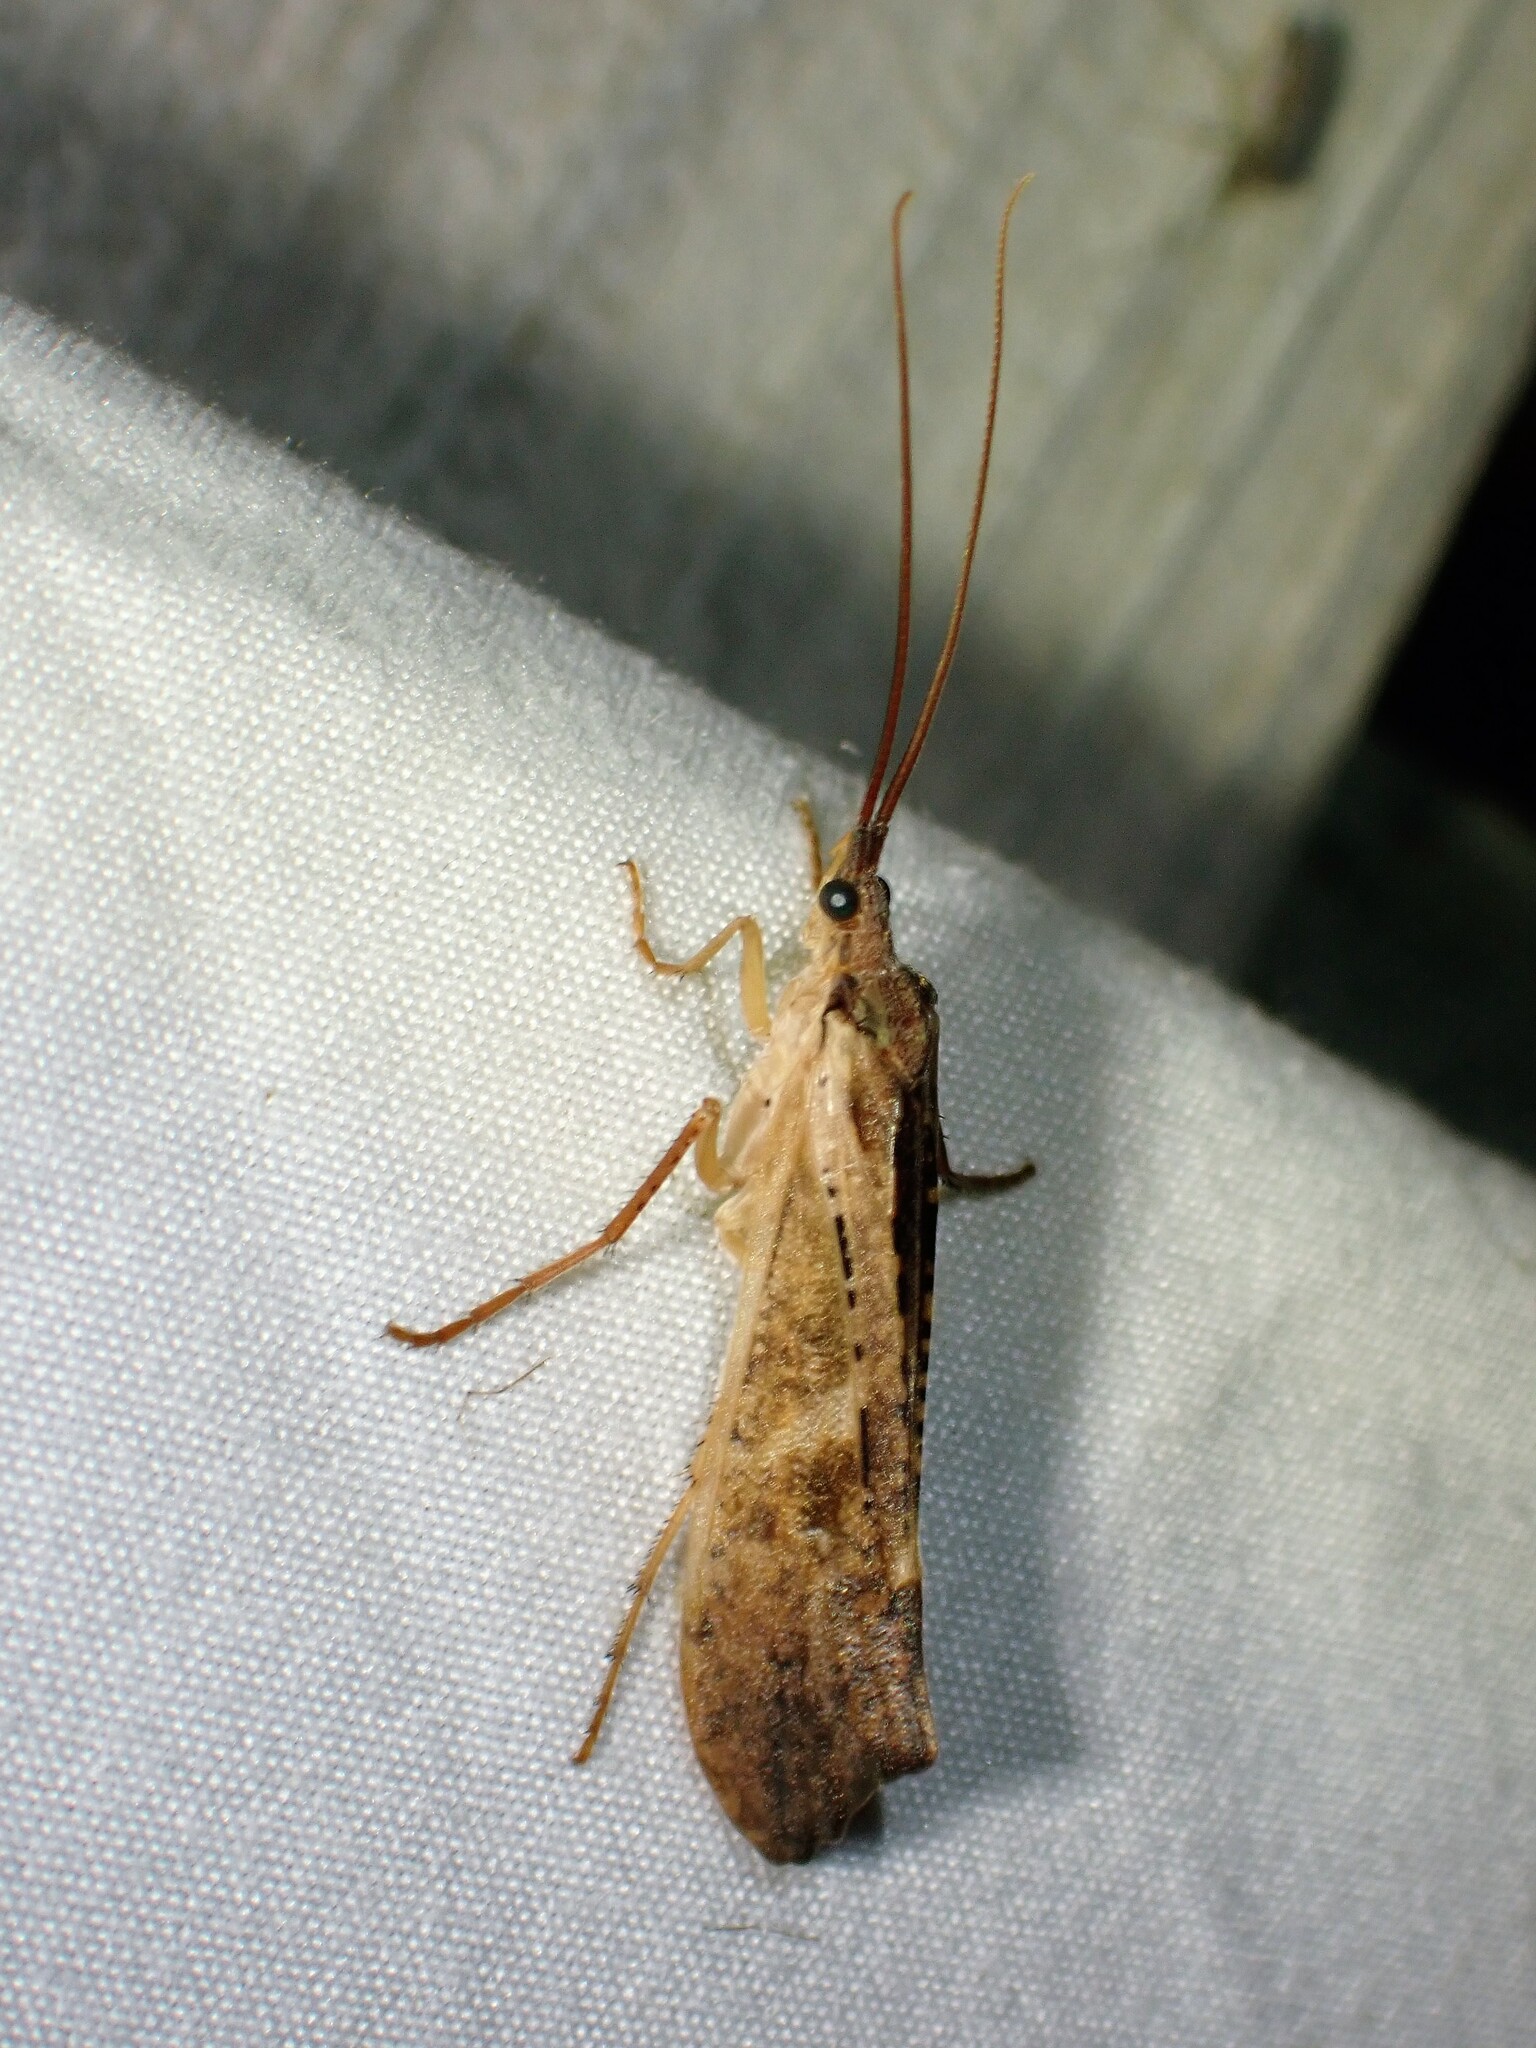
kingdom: Animalia
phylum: Arthropoda
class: Insecta
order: Trichoptera
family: Limnephilidae
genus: Nemotaulius
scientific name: Nemotaulius hostilis
